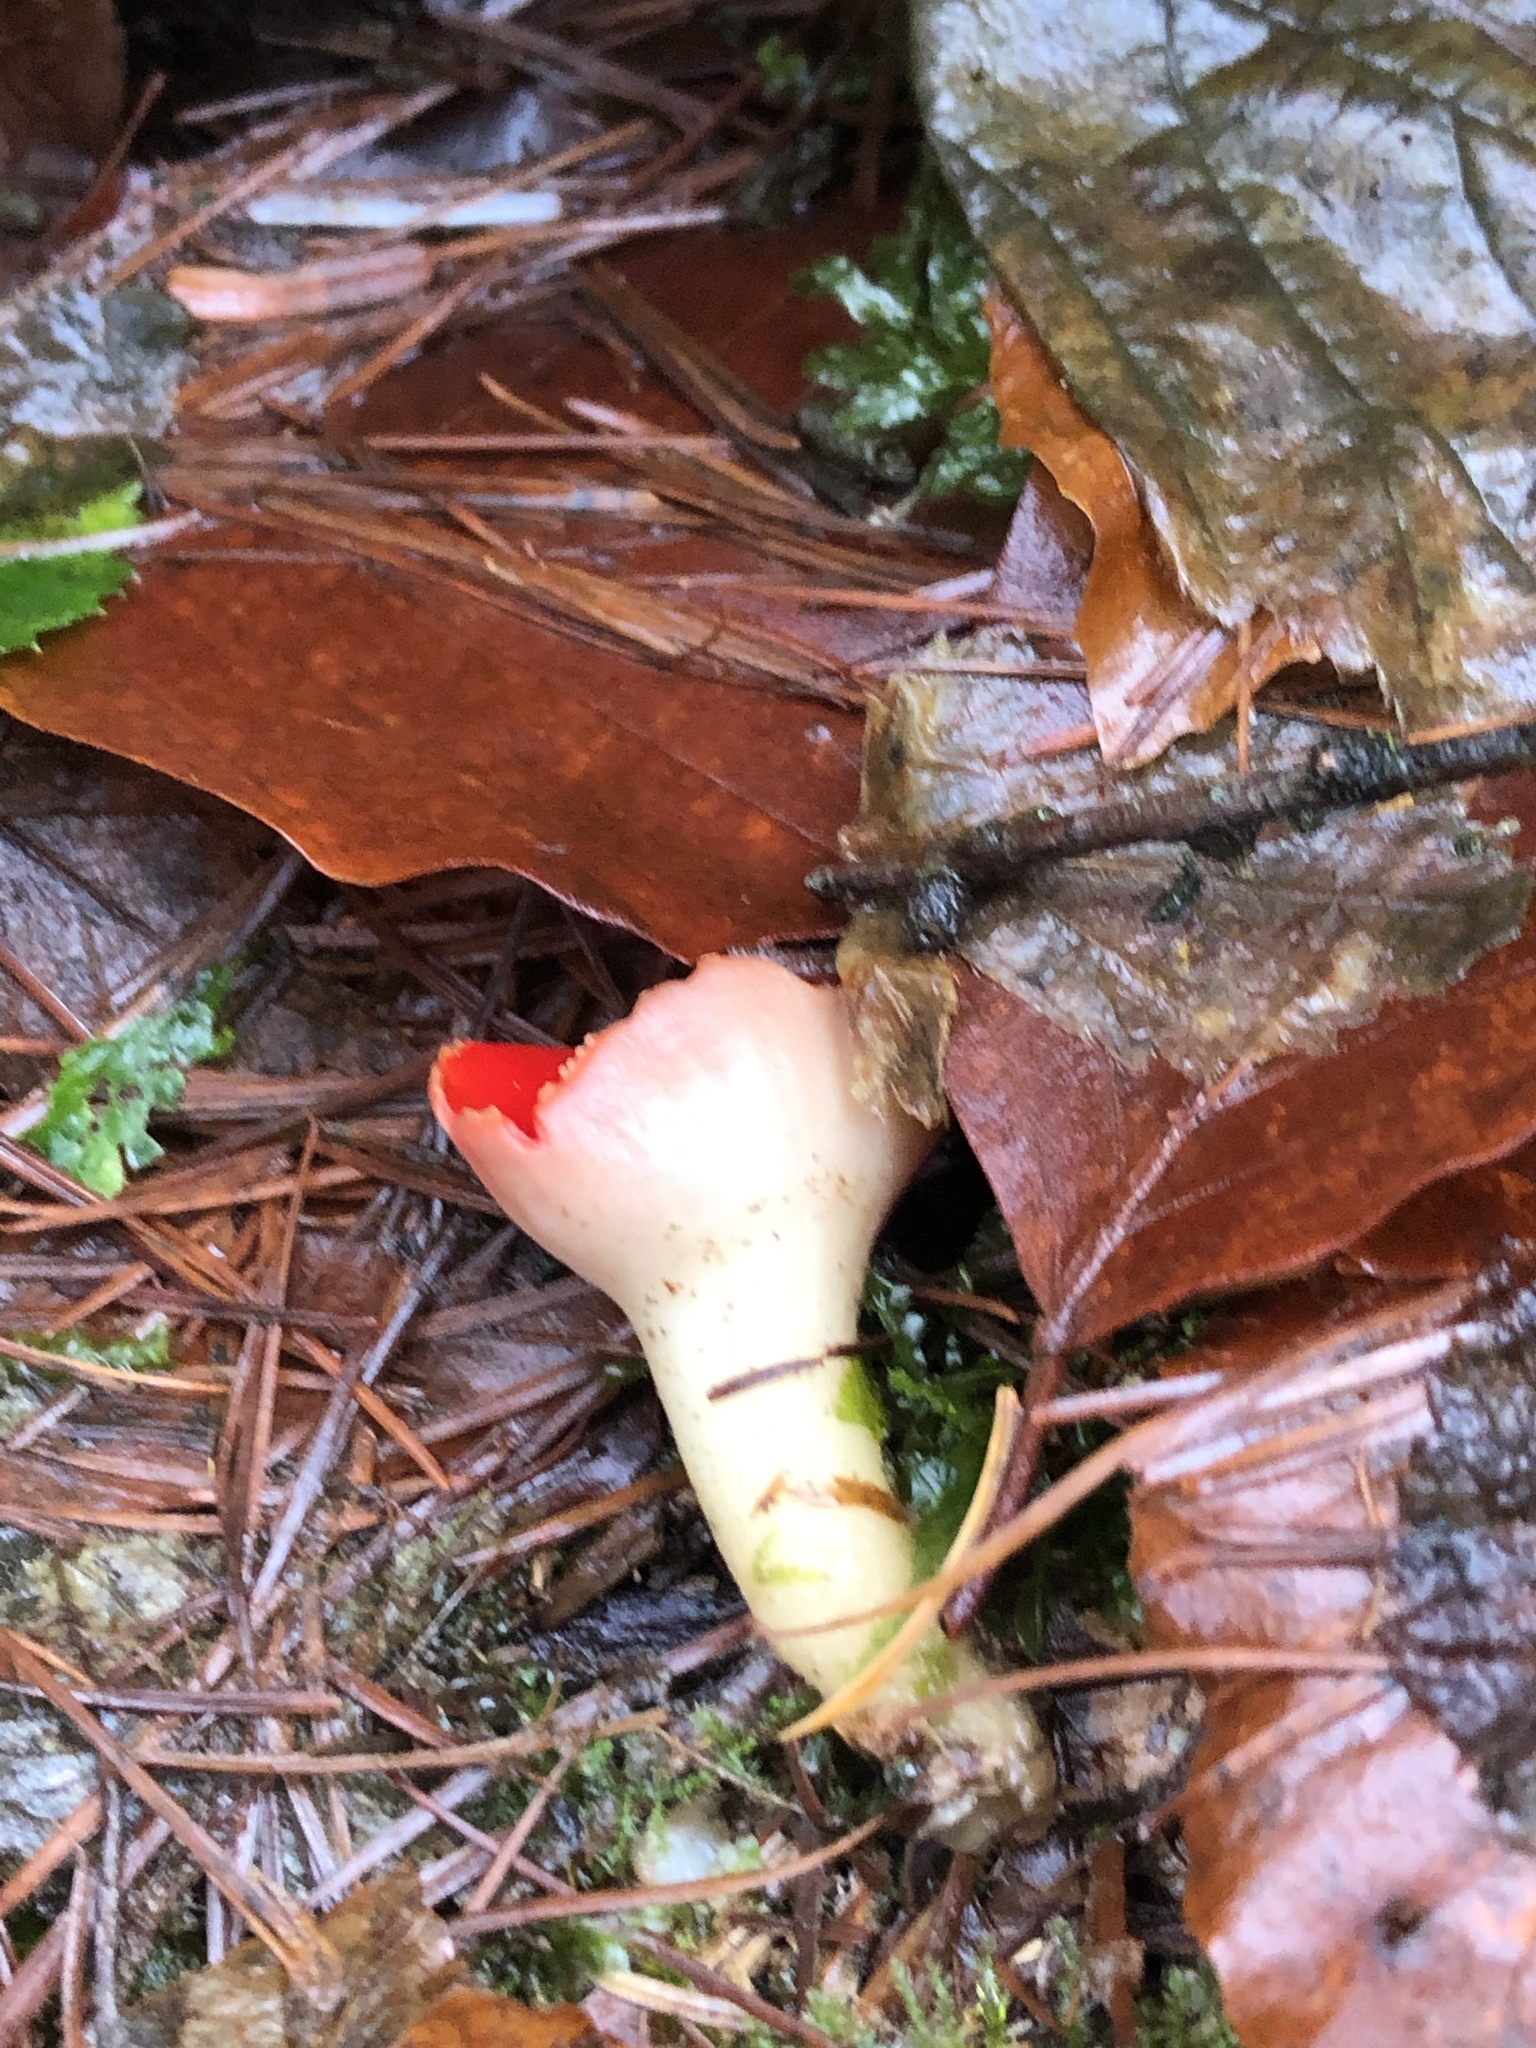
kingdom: Fungi
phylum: Ascomycota
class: Pezizomycetes
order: Pezizales
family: Sarcoscyphaceae
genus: Sarcoscypha
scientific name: Sarcoscypha
